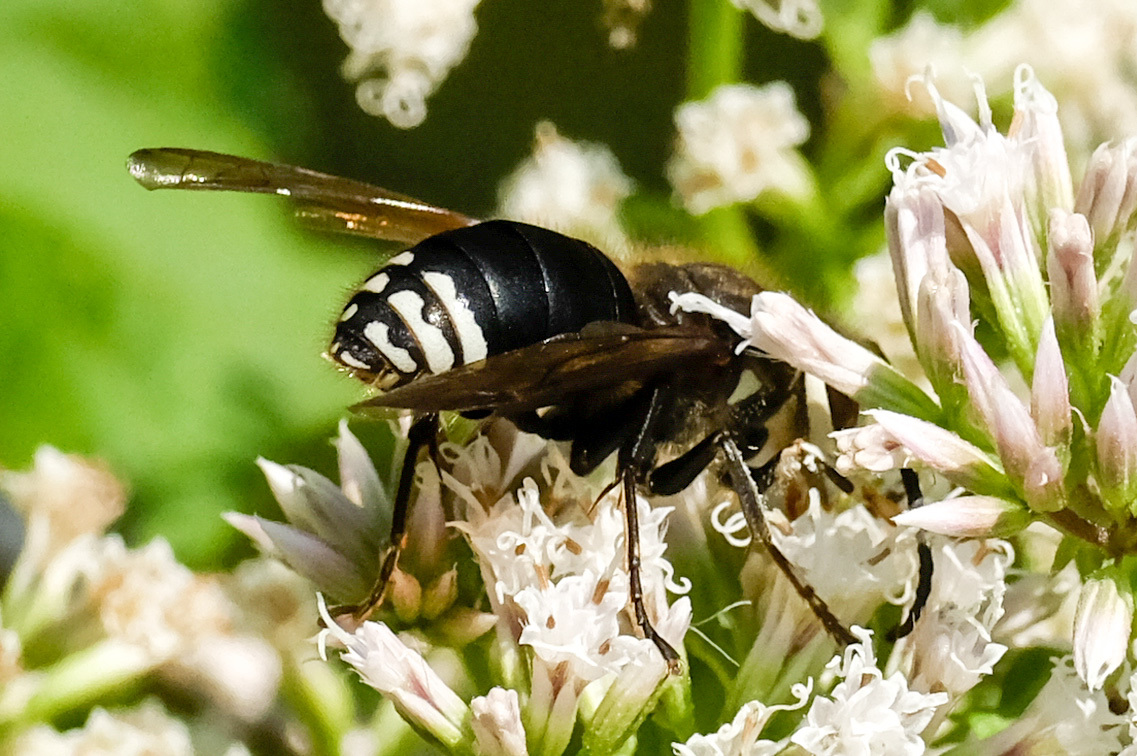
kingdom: Animalia
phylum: Arthropoda
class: Insecta
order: Hymenoptera
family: Vespidae
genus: Dolichovespula
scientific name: Dolichovespula maculata
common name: Bald-faced hornet
